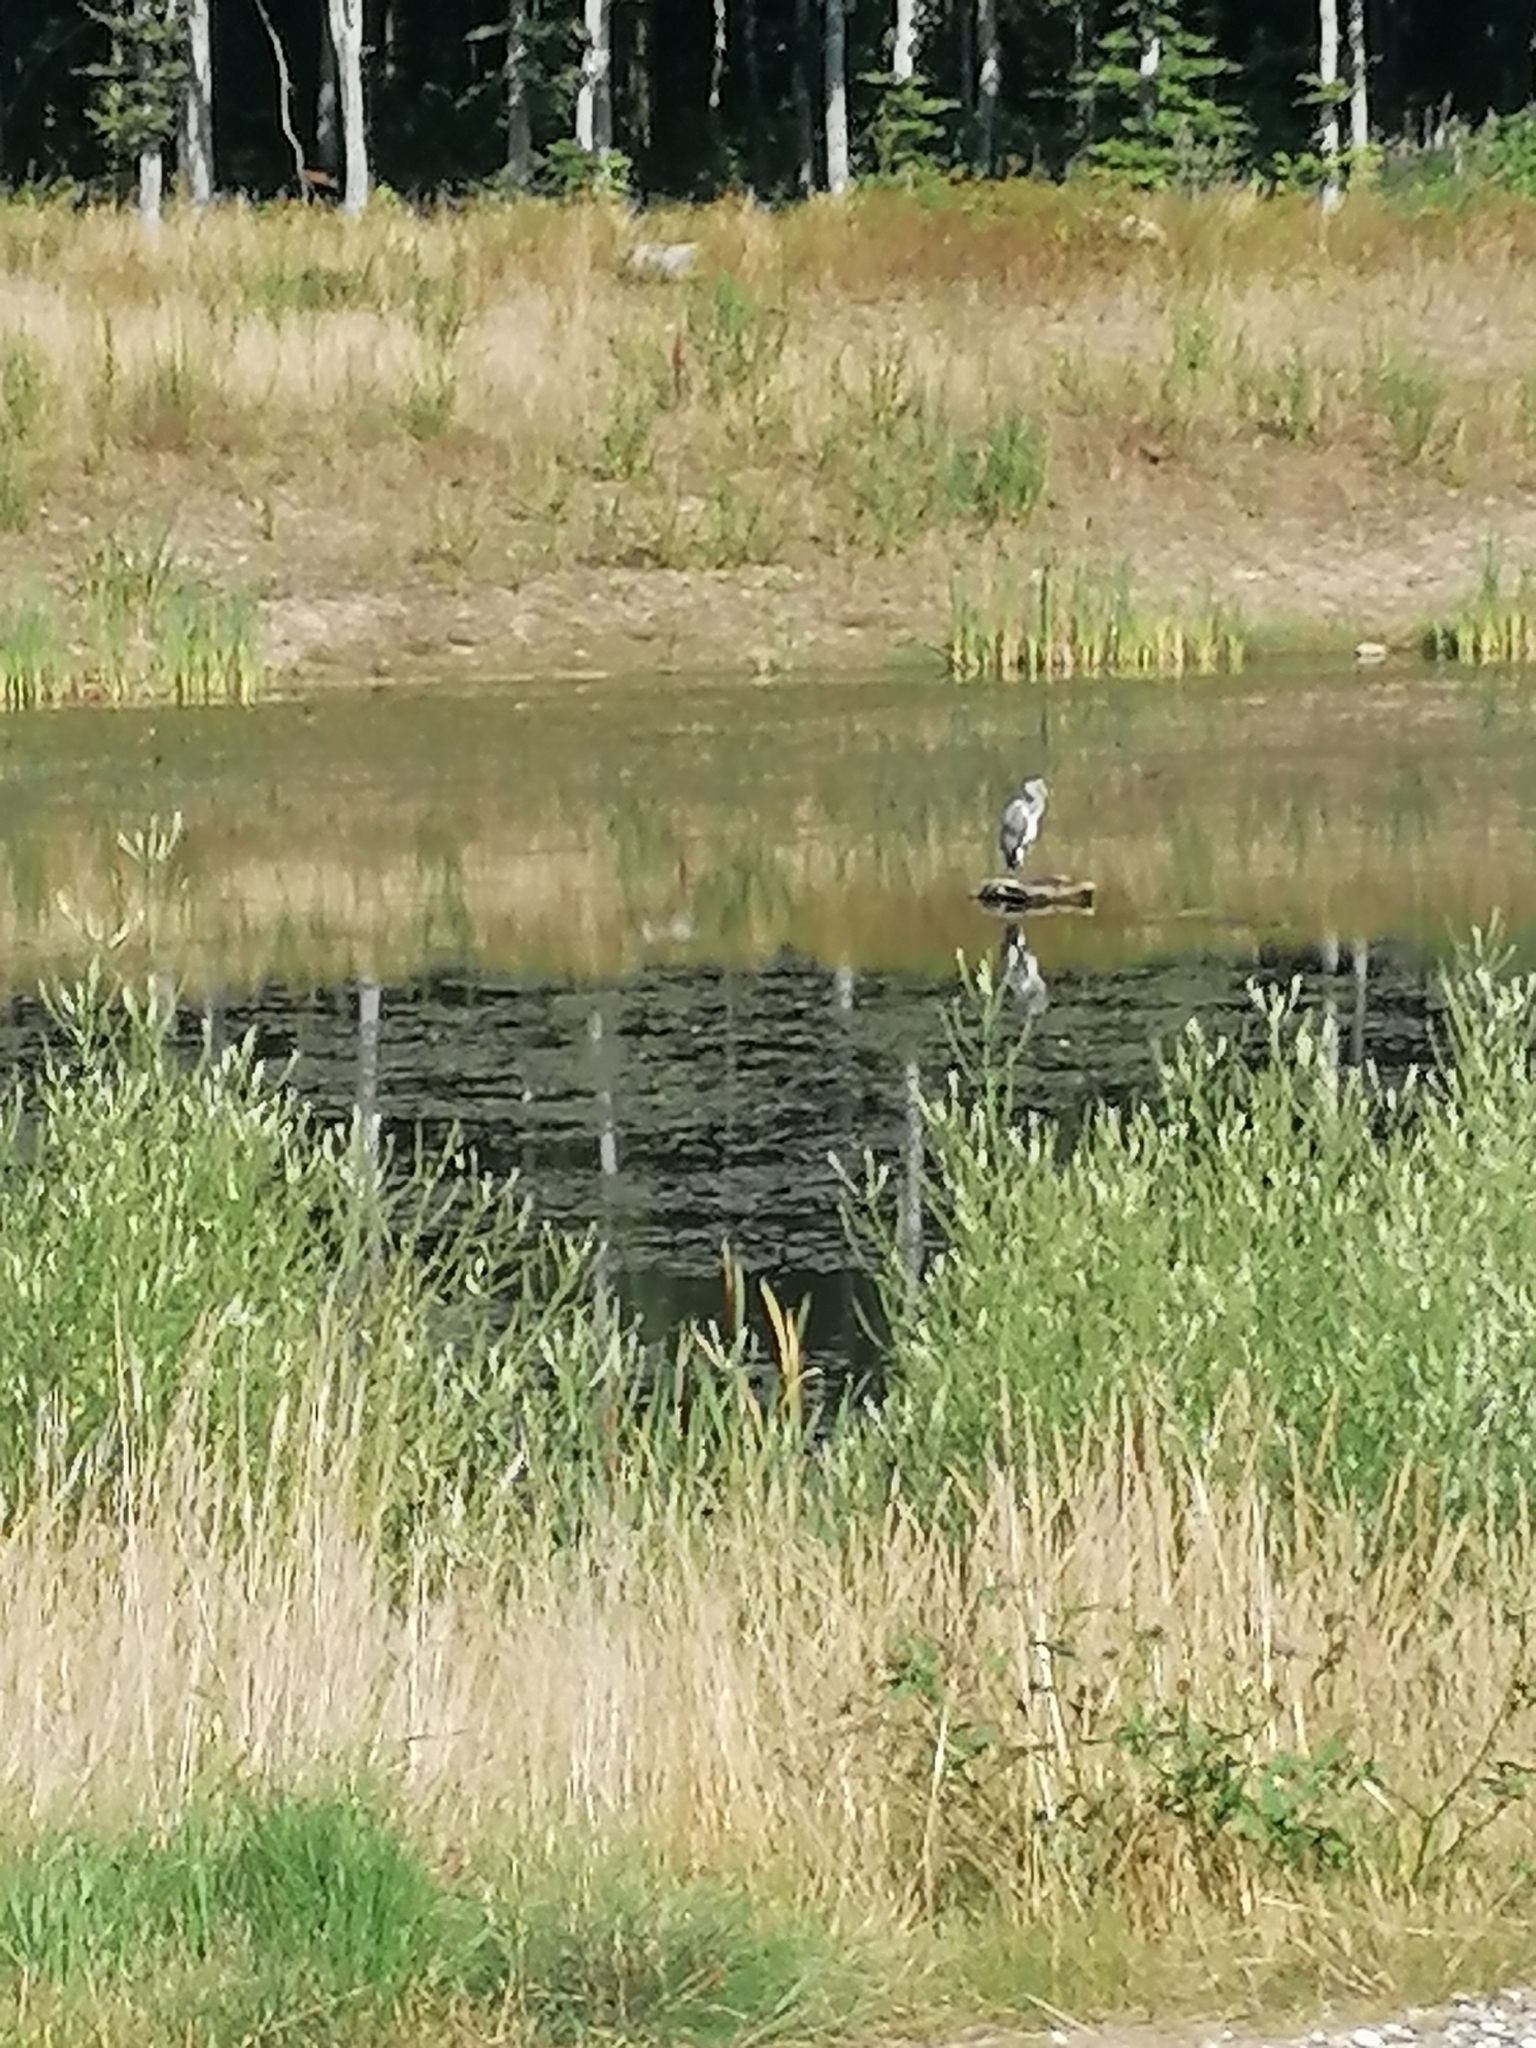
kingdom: Animalia
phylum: Chordata
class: Aves
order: Pelecaniformes
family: Ardeidae
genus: Ardea
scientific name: Ardea cinerea
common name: Grey heron
